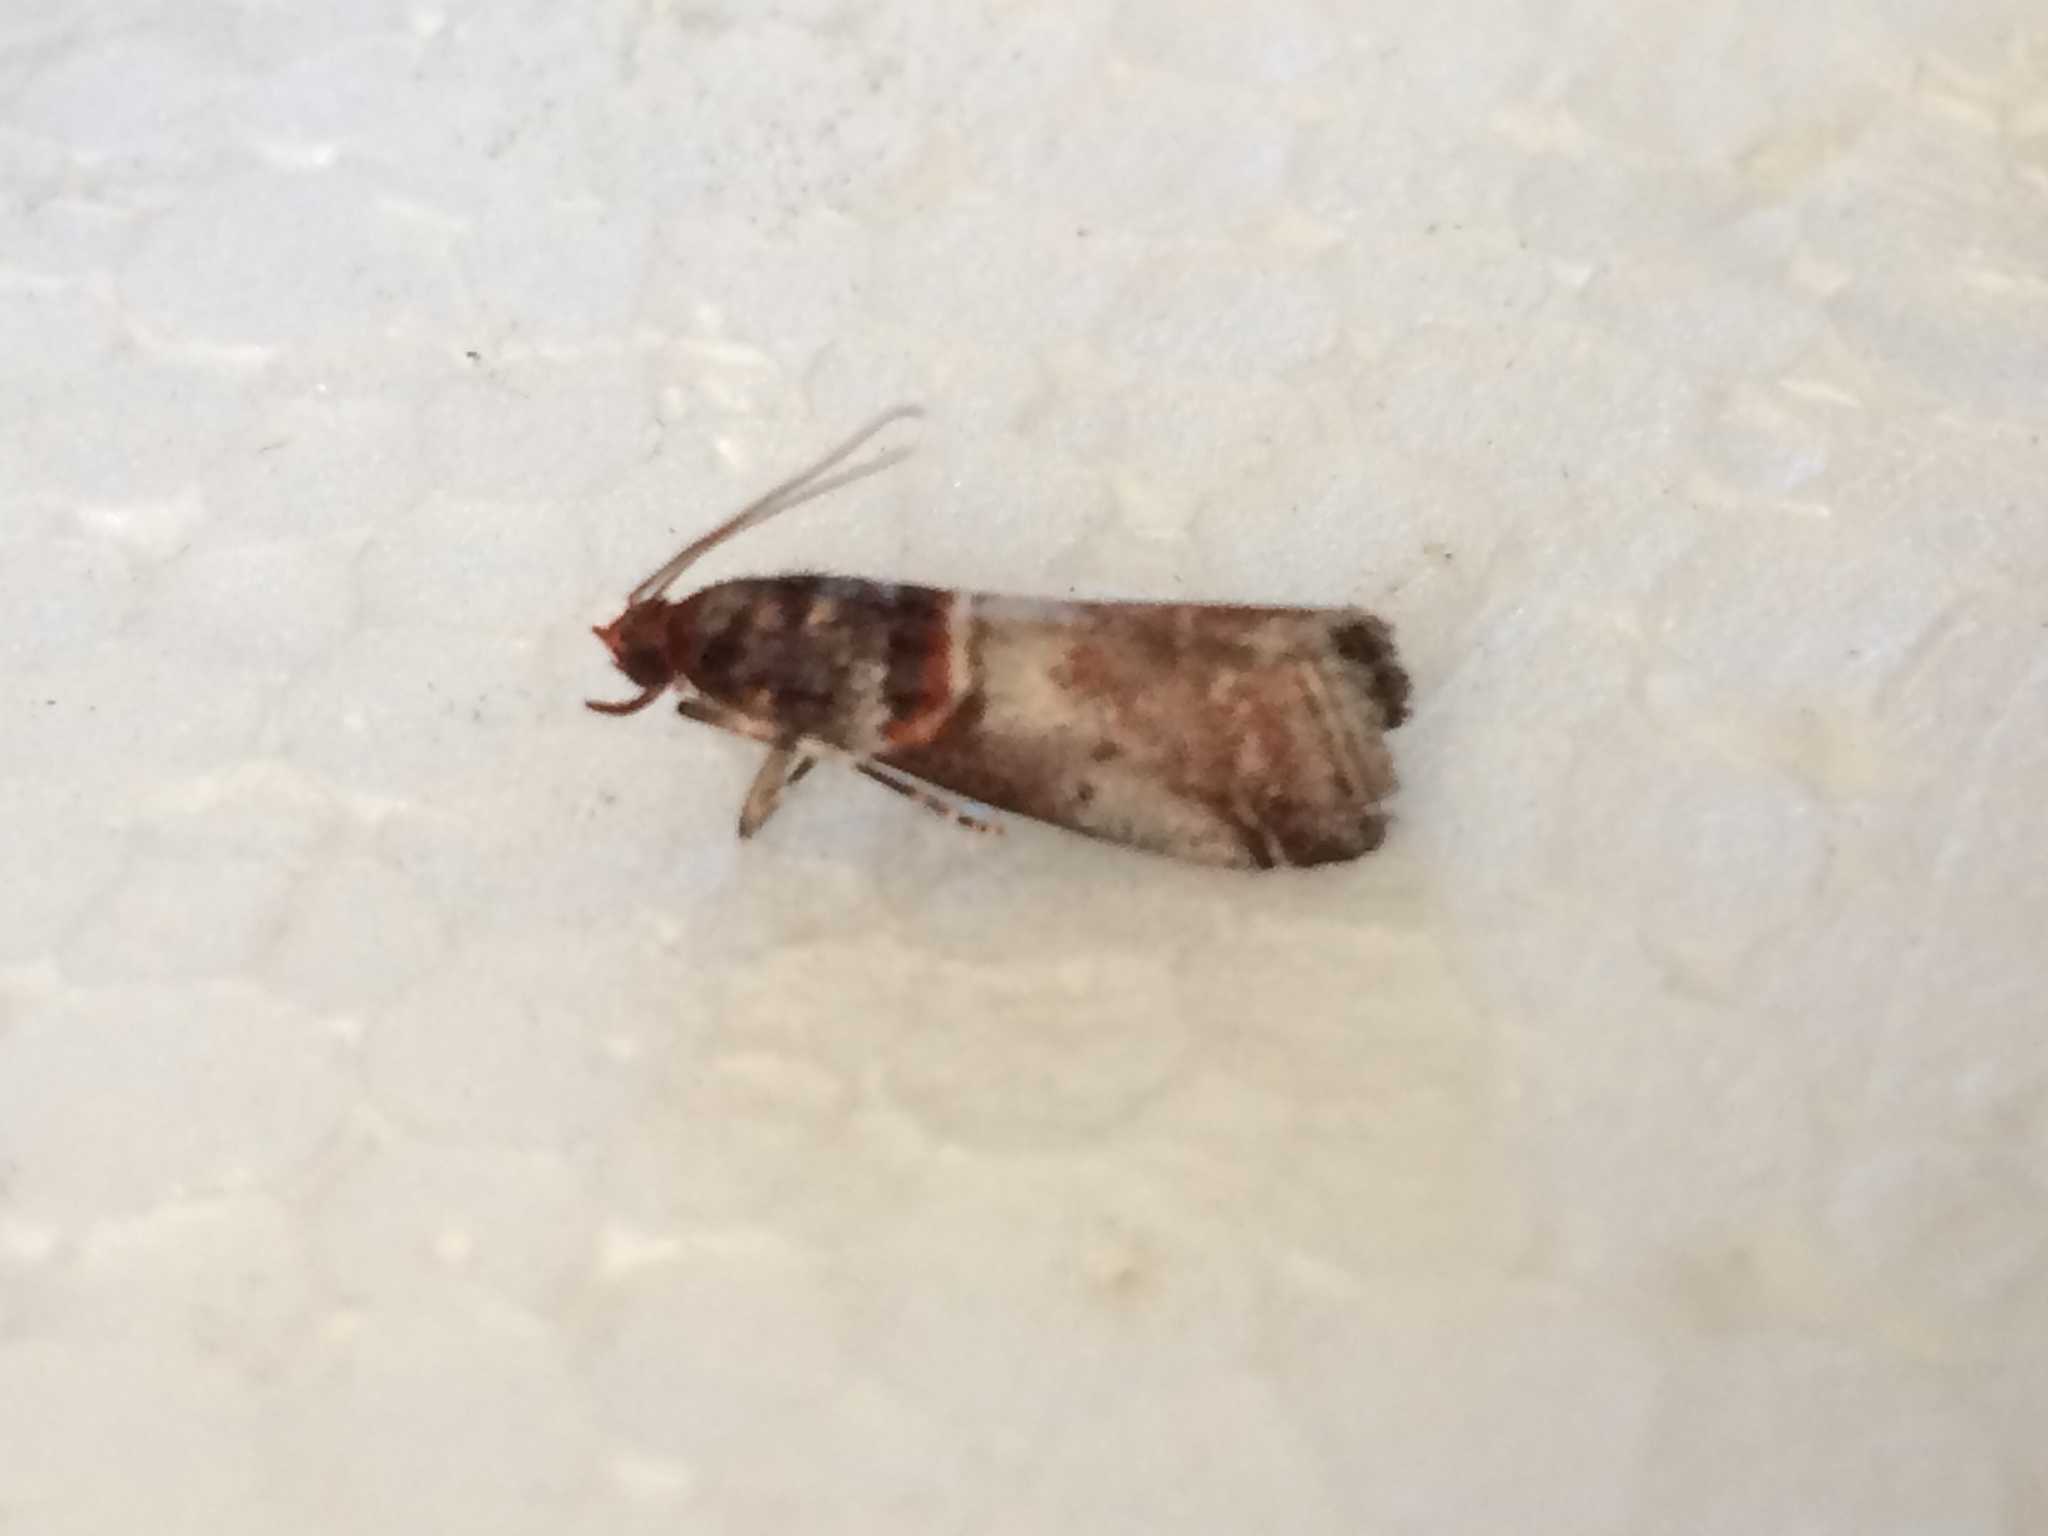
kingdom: Animalia
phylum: Arthropoda
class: Insecta
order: Lepidoptera
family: Pyralidae
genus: Acrobasis
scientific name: Acrobasis advenella
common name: Grey knot-horn
